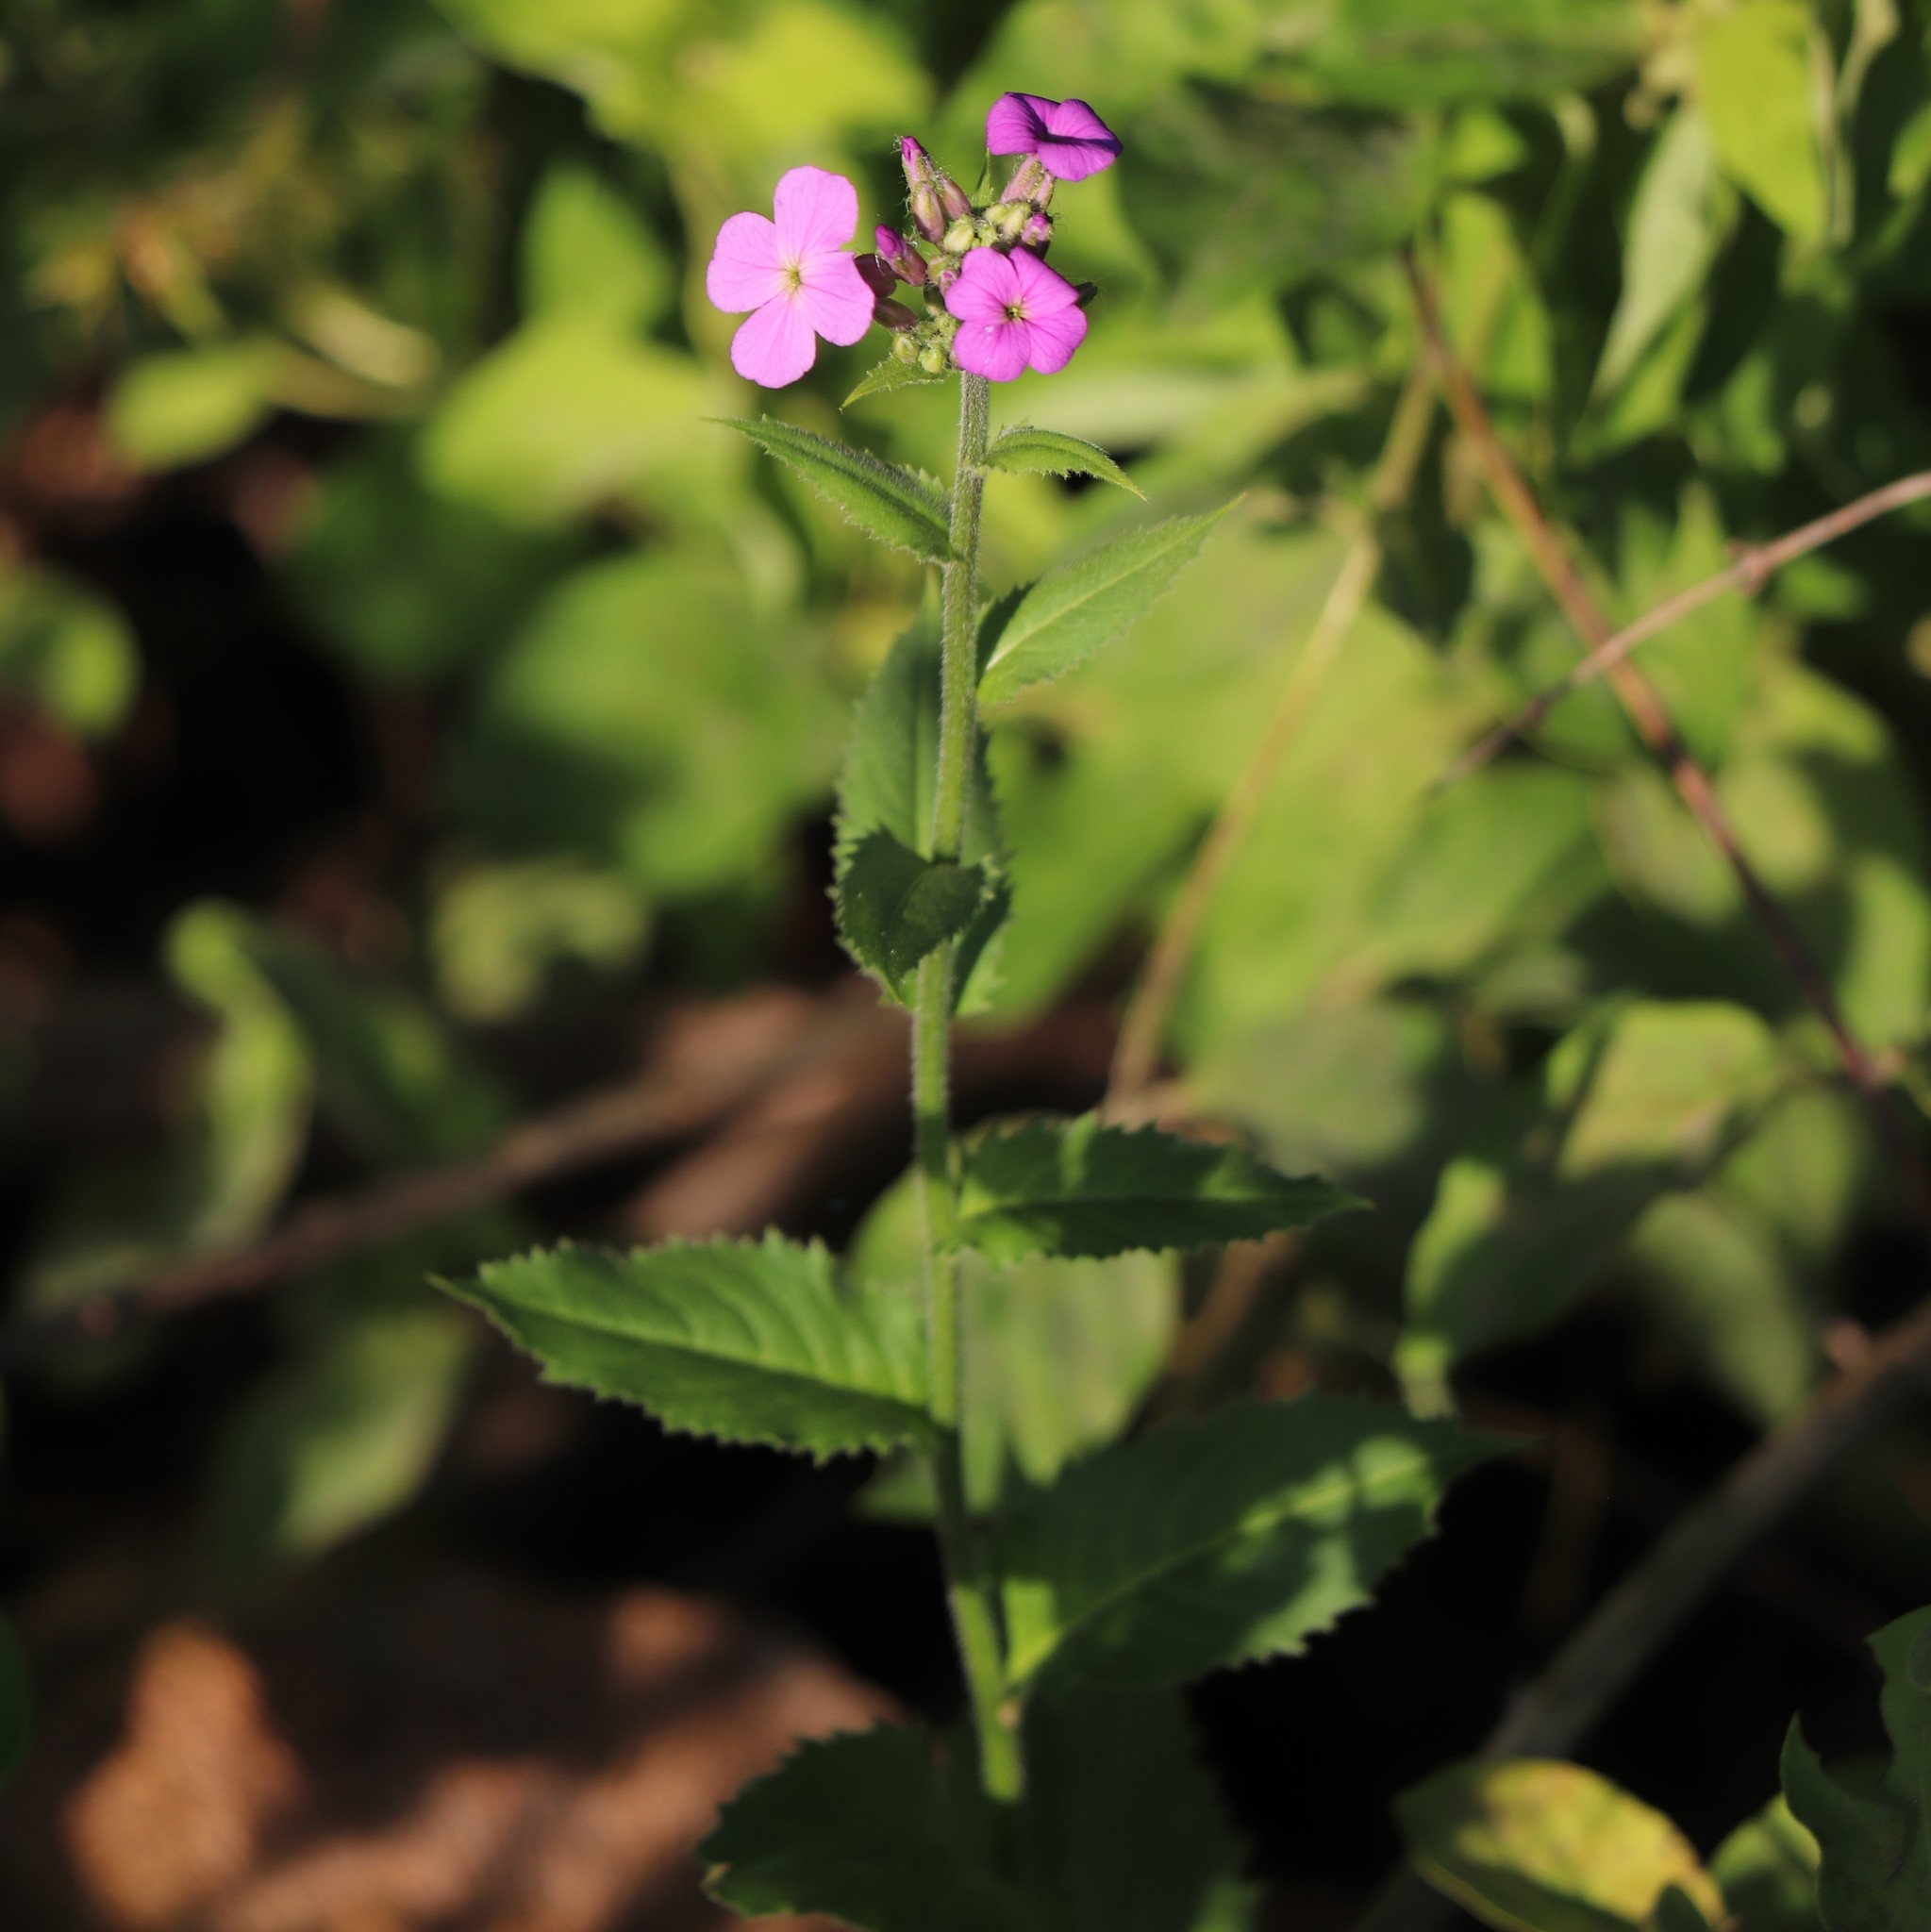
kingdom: Plantae
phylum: Tracheophyta
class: Magnoliopsida
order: Brassicales
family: Brassicaceae
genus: Hesperis
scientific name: Hesperis matronalis
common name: Dame's-violet
